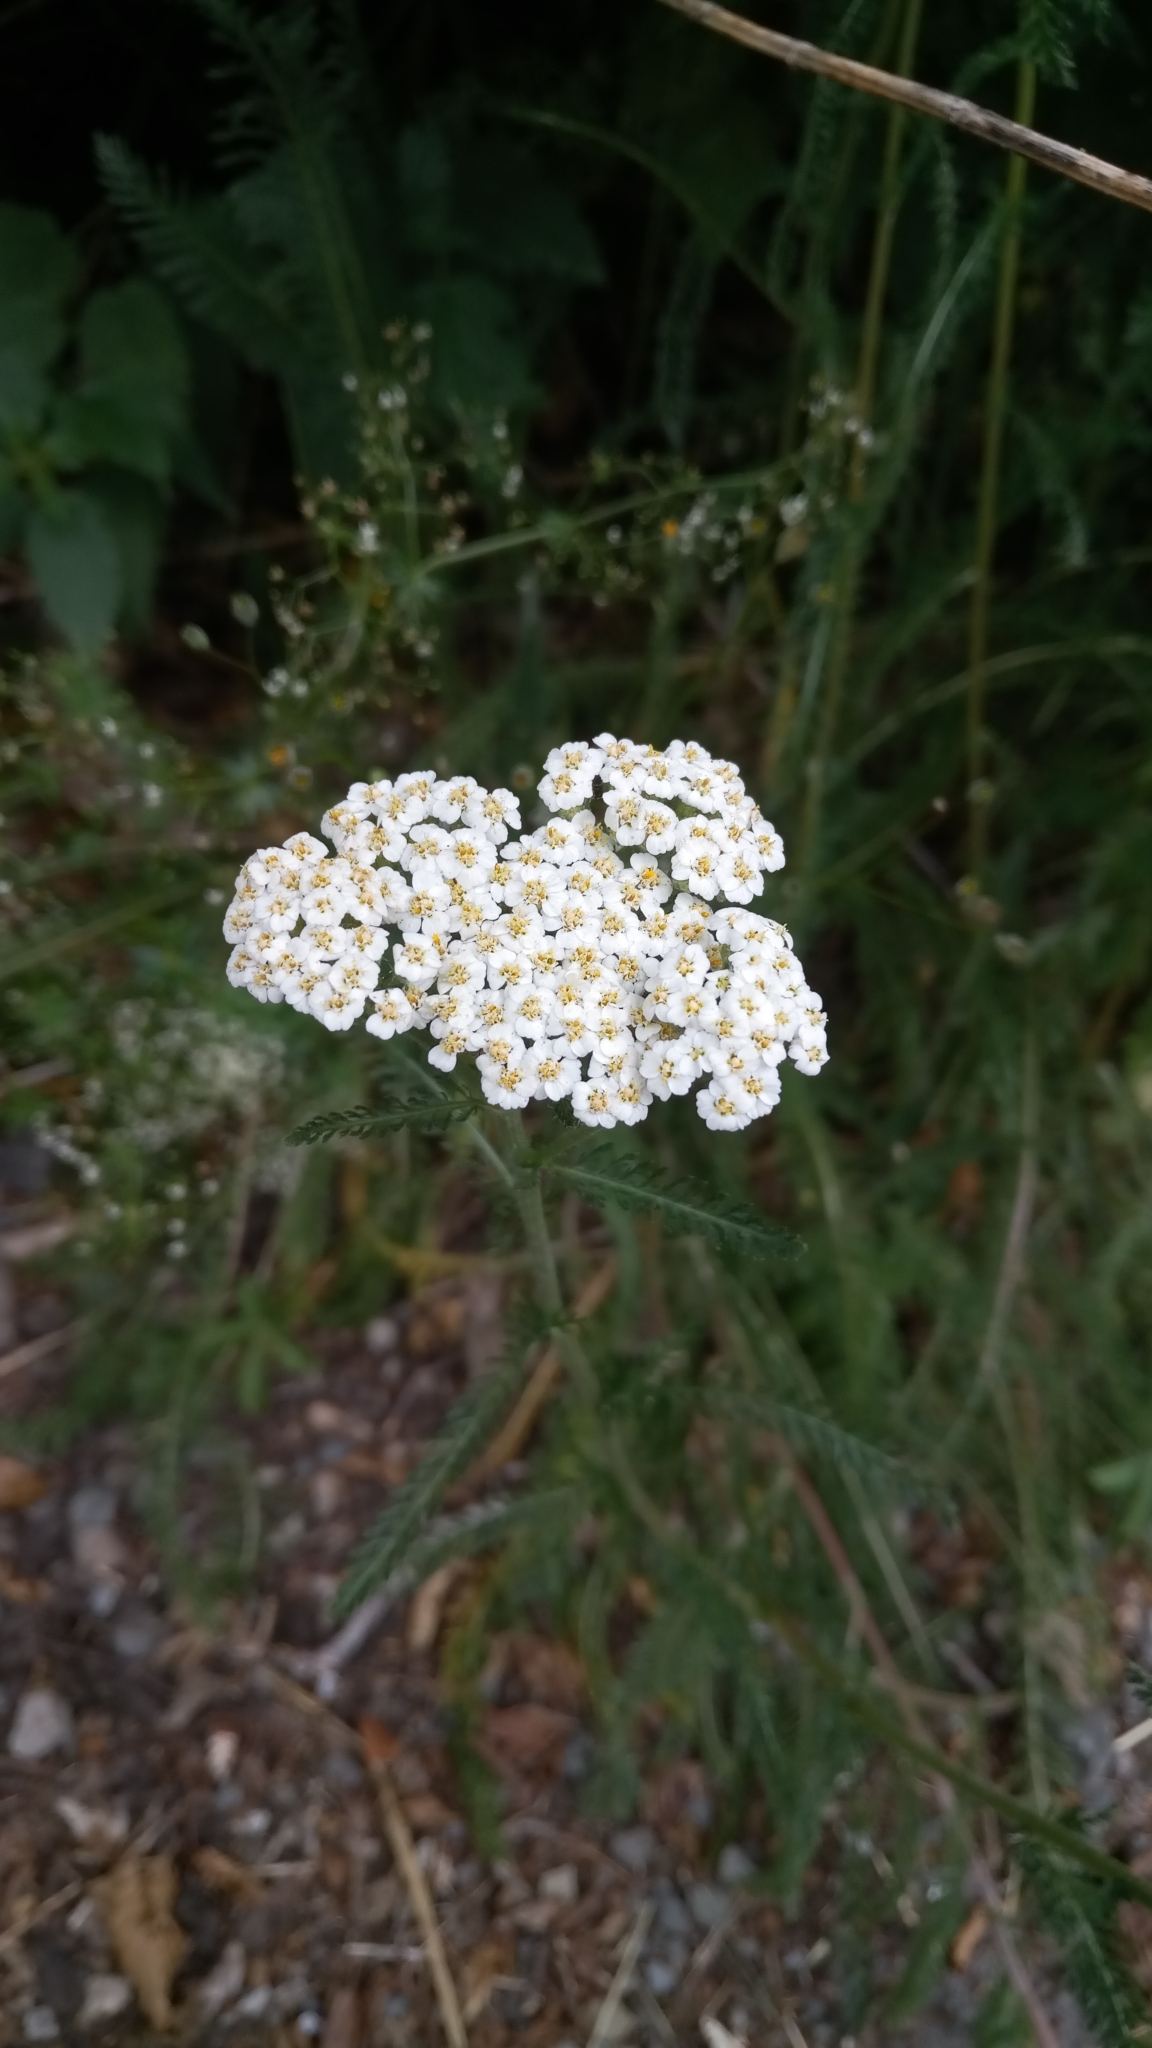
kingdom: Plantae
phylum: Tracheophyta
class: Magnoliopsida
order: Asterales
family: Asteraceae
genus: Achillea
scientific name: Achillea millefolium
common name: Yarrow
